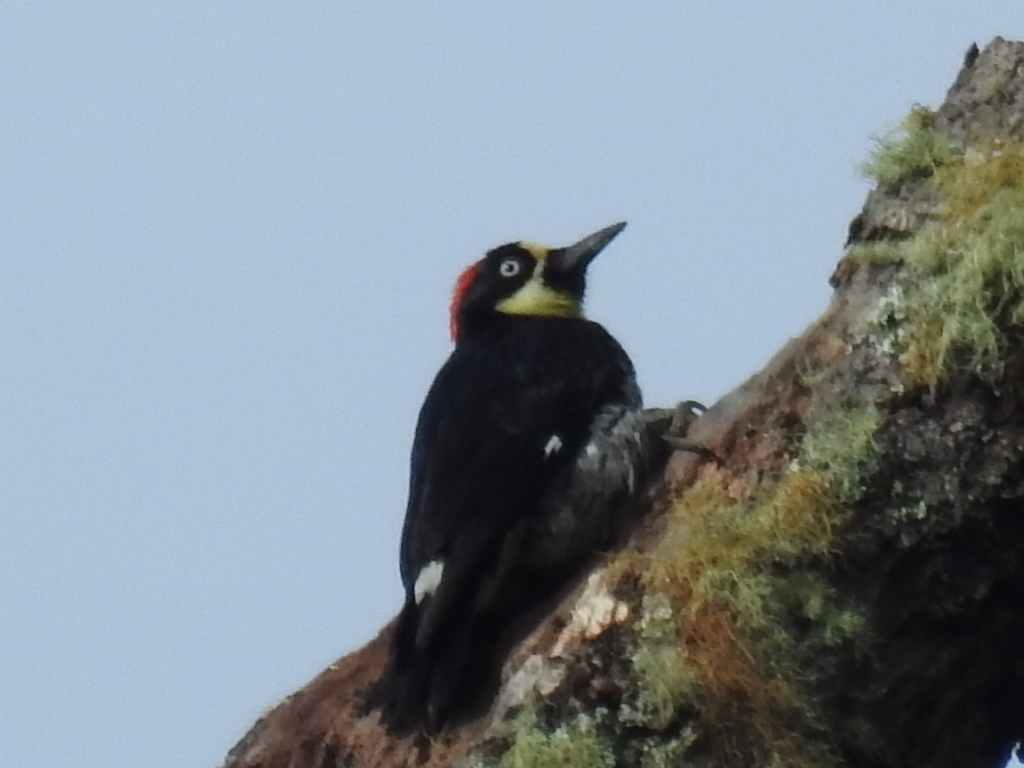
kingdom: Animalia
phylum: Chordata
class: Aves
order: Piciformes
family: Picidae
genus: Melanerpes
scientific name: Melanerpes formicivorus
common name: Acorn woodpecker
